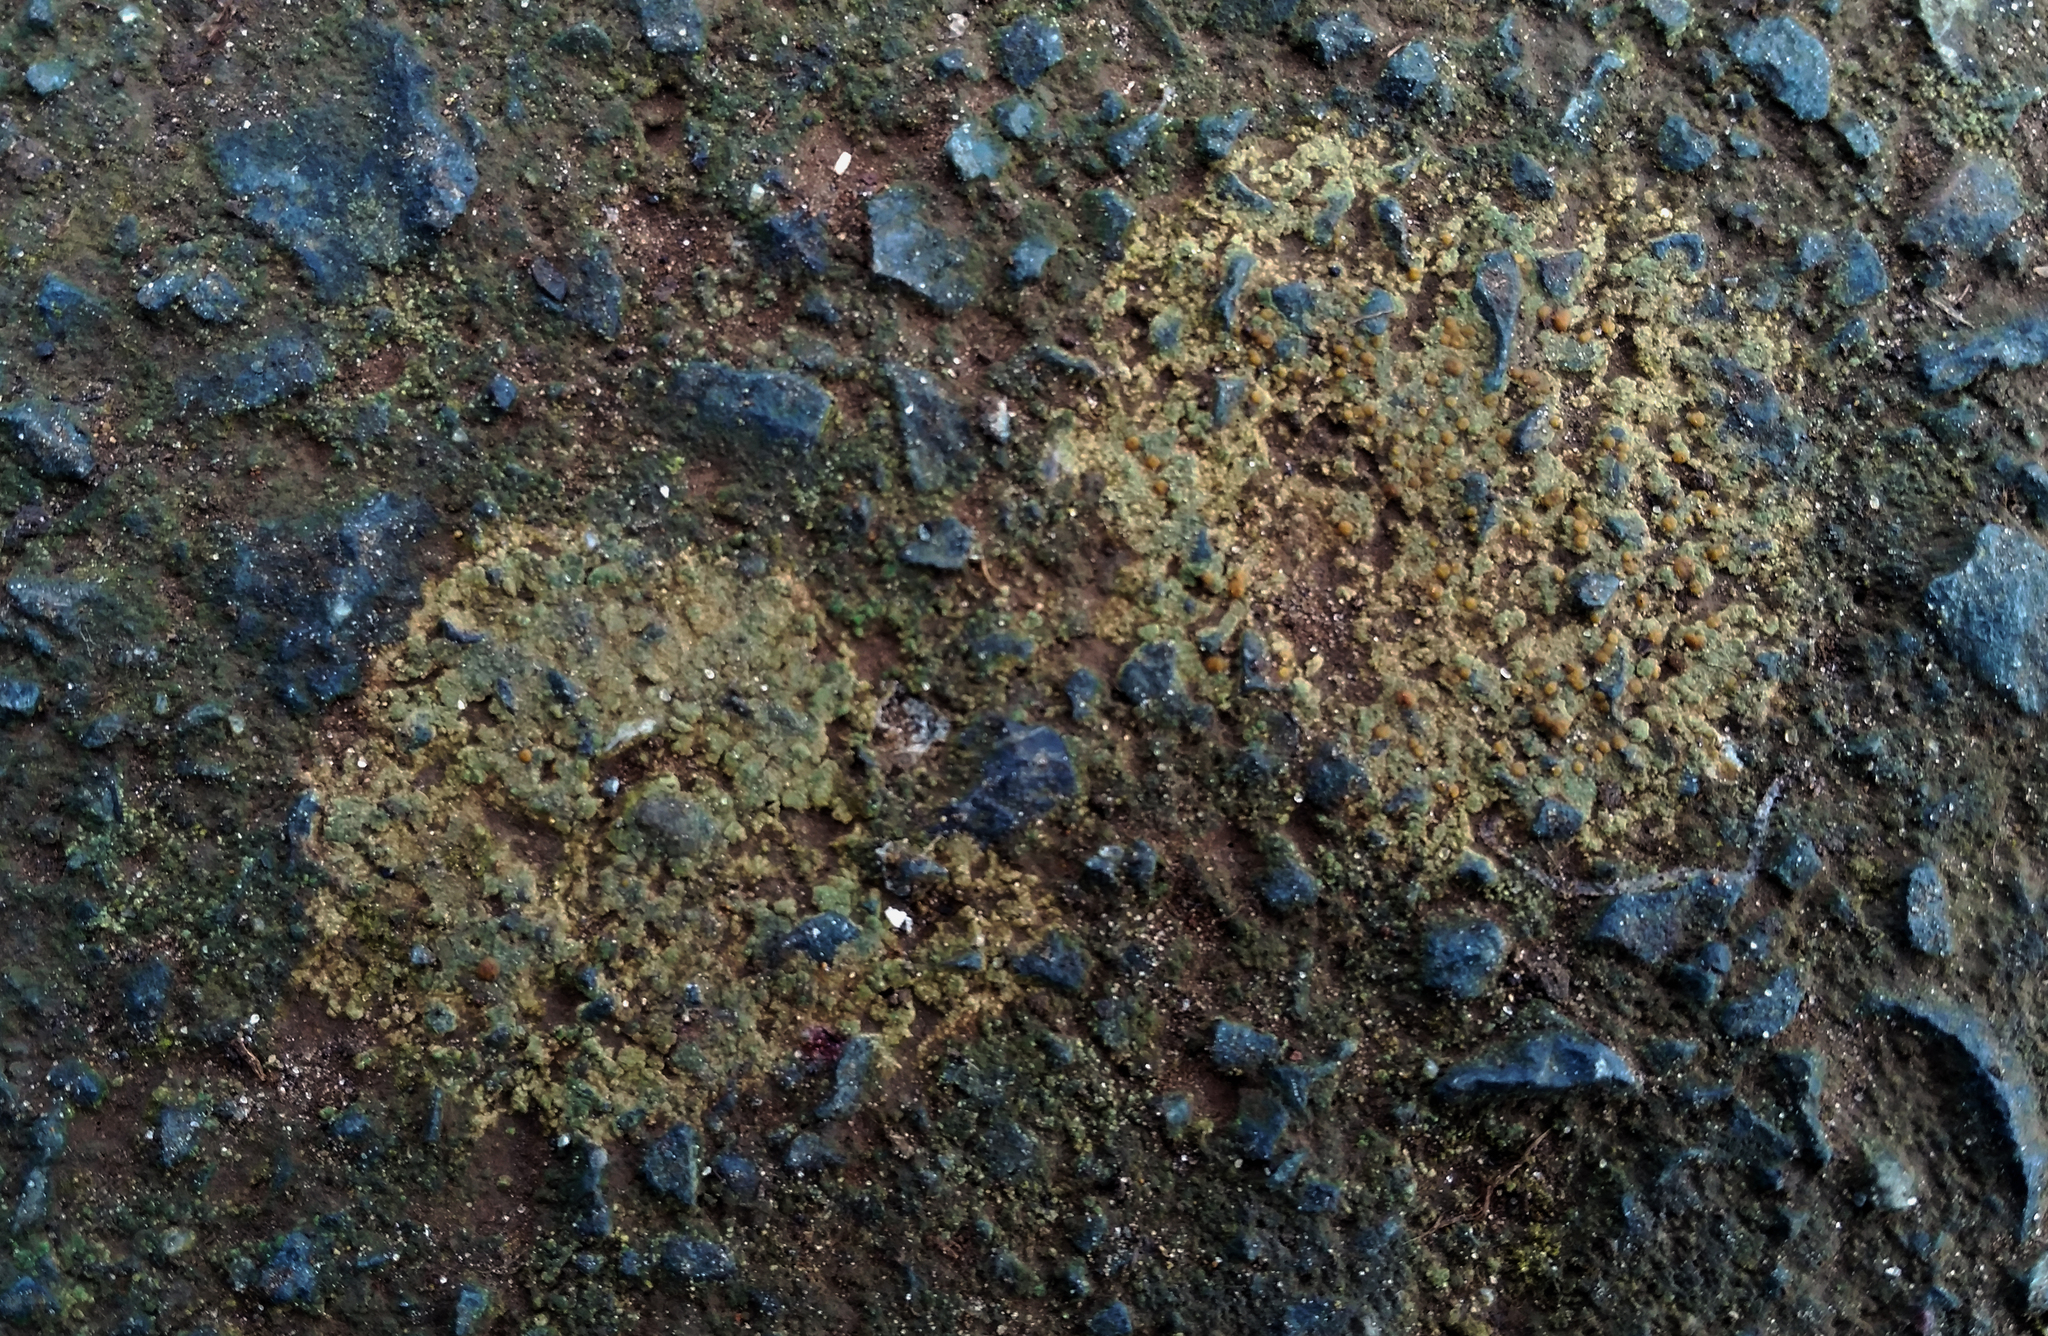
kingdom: Fungi
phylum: Ascomycota
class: Lecanoromycetes
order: Lecanorales
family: Psoraceae
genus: Protoblastenia
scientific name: Protoblastenia rupestris
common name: Chewing gum lichen
